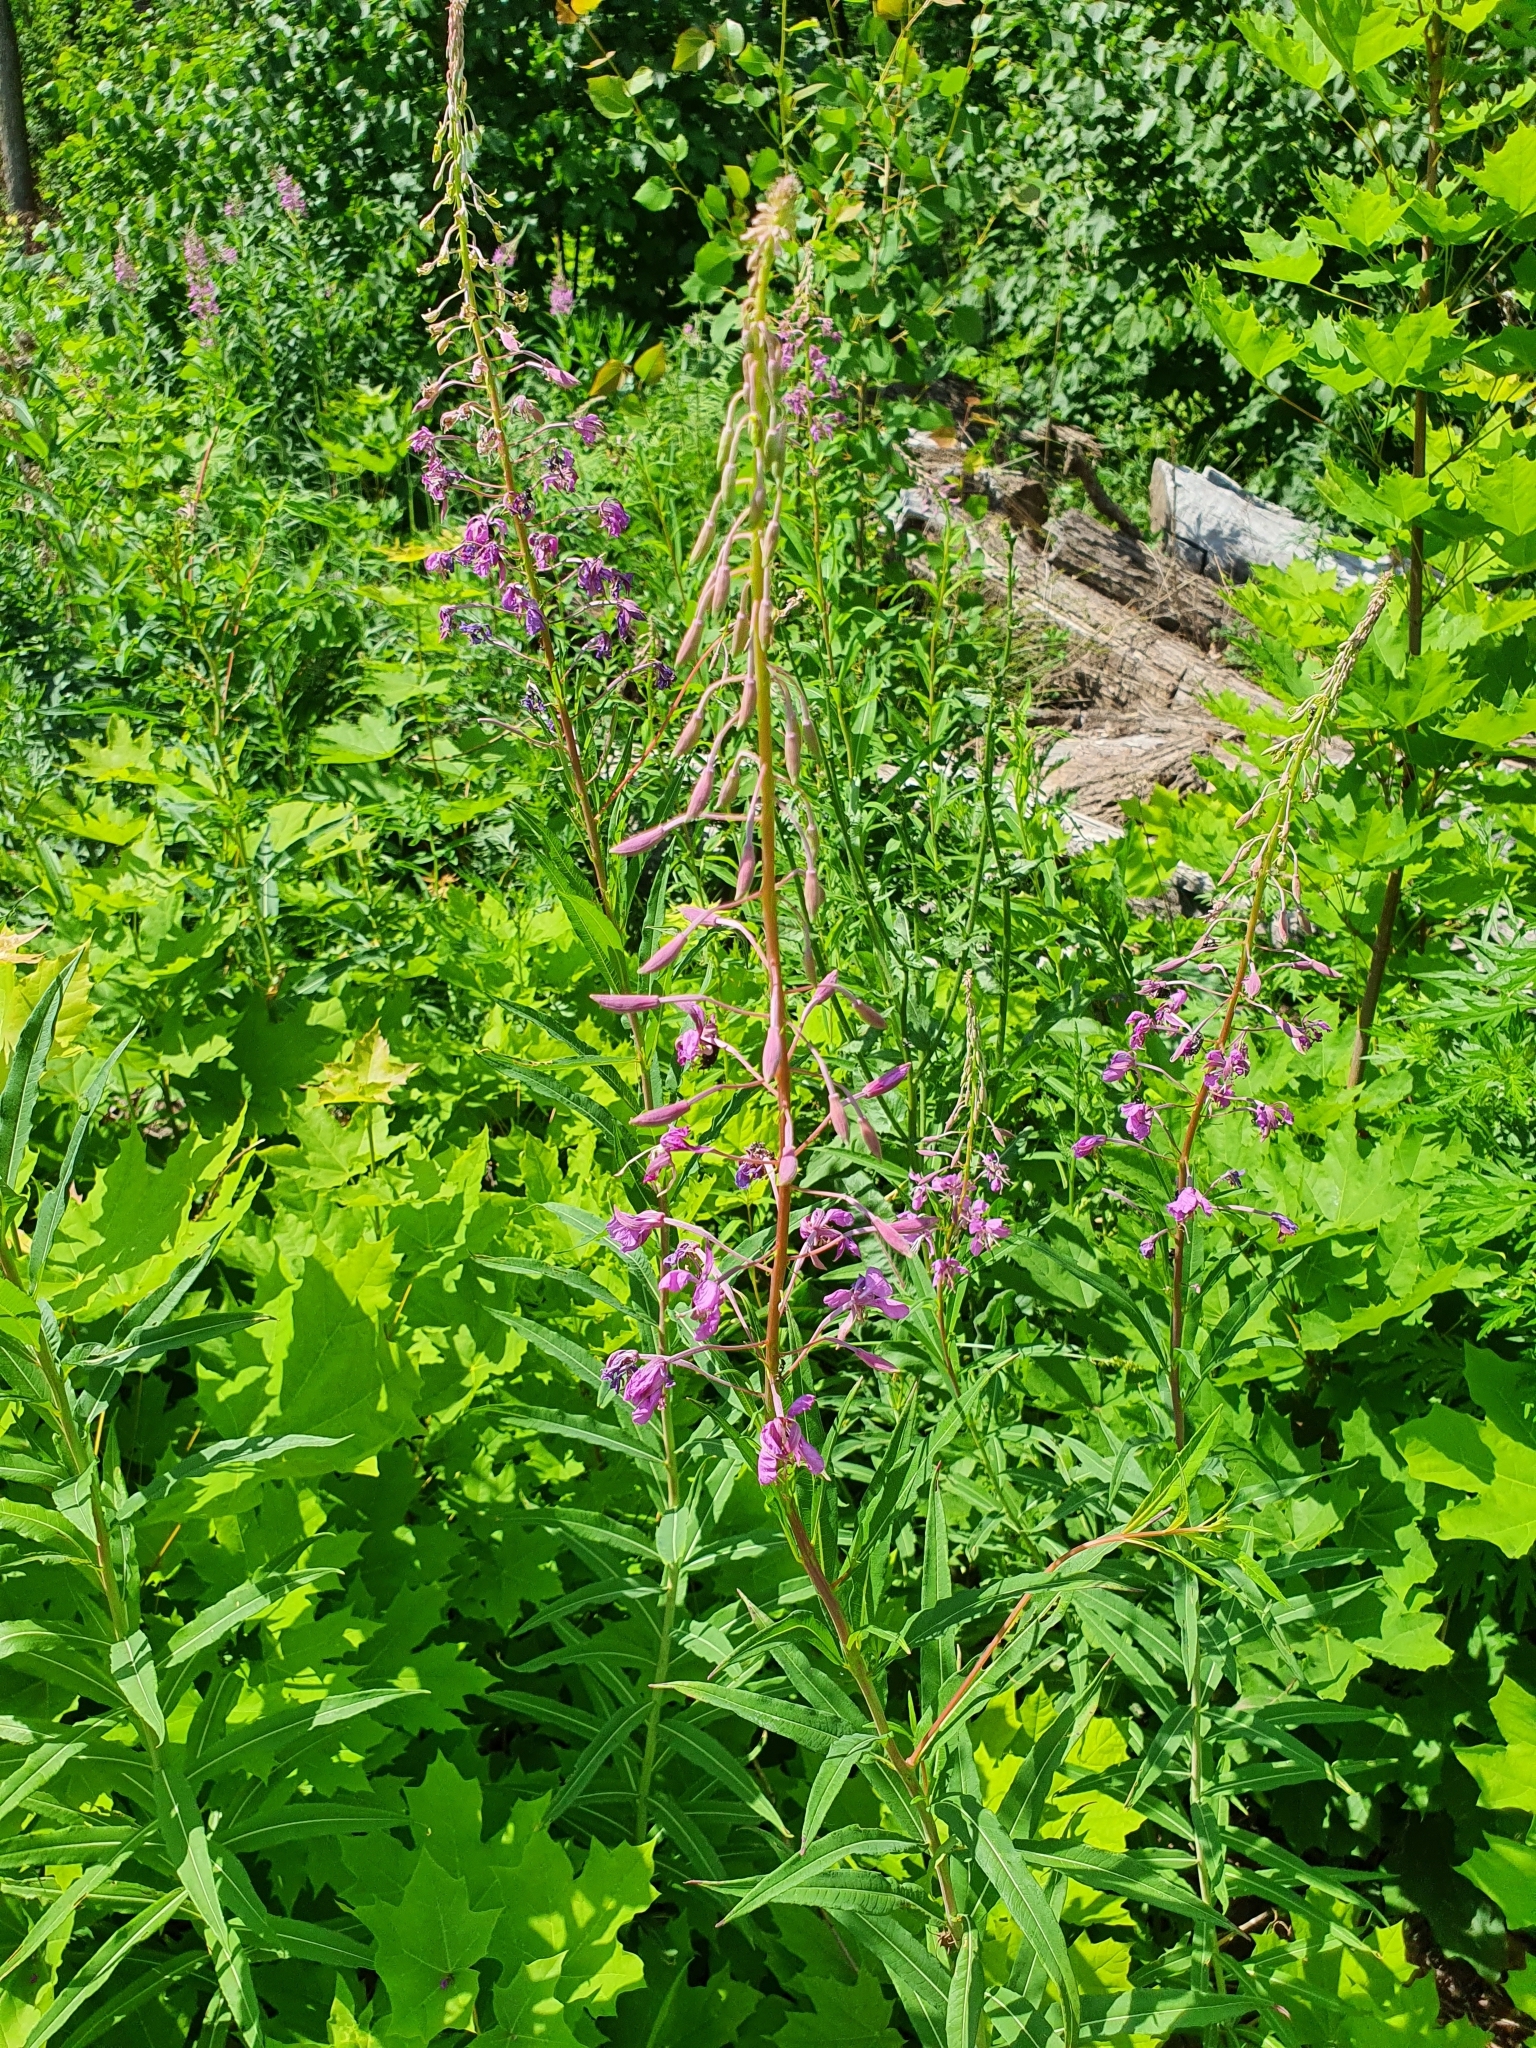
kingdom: Plantae
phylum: Tracheophyta
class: Magnoliopsida
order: Myrtales
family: Onagraceae
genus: Chamaenerion
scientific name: Chamaenerion angustifolium
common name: Fireweed
